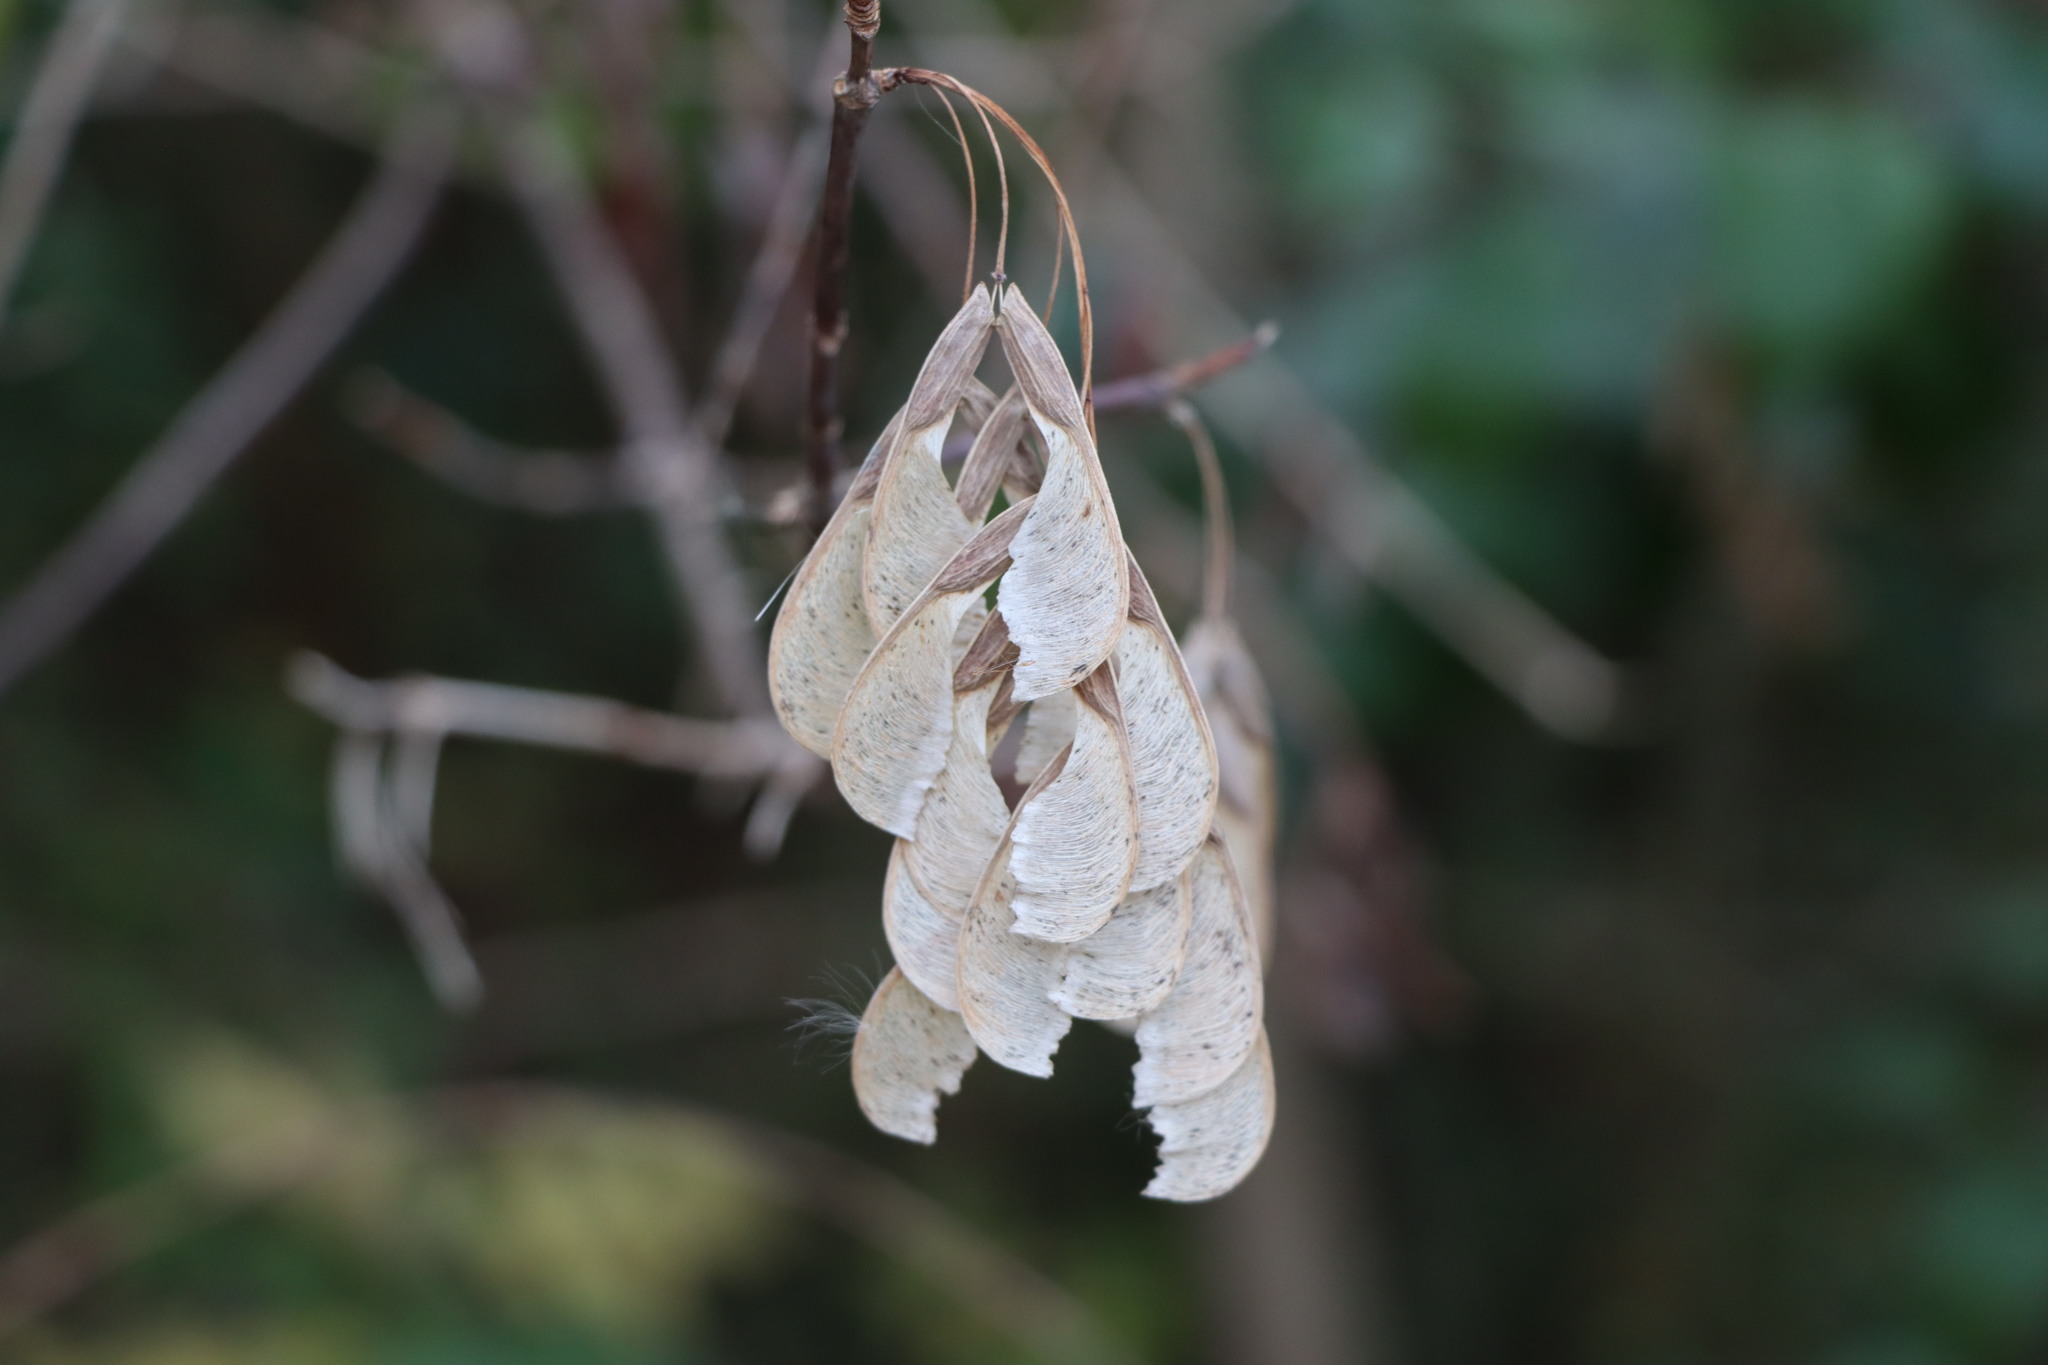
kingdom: Plantae
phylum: Tracheophyta
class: Magnoliopsida
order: Sapindales
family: Sapindaceae
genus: Acer
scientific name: Acer negundo
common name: Ashleaf maple
